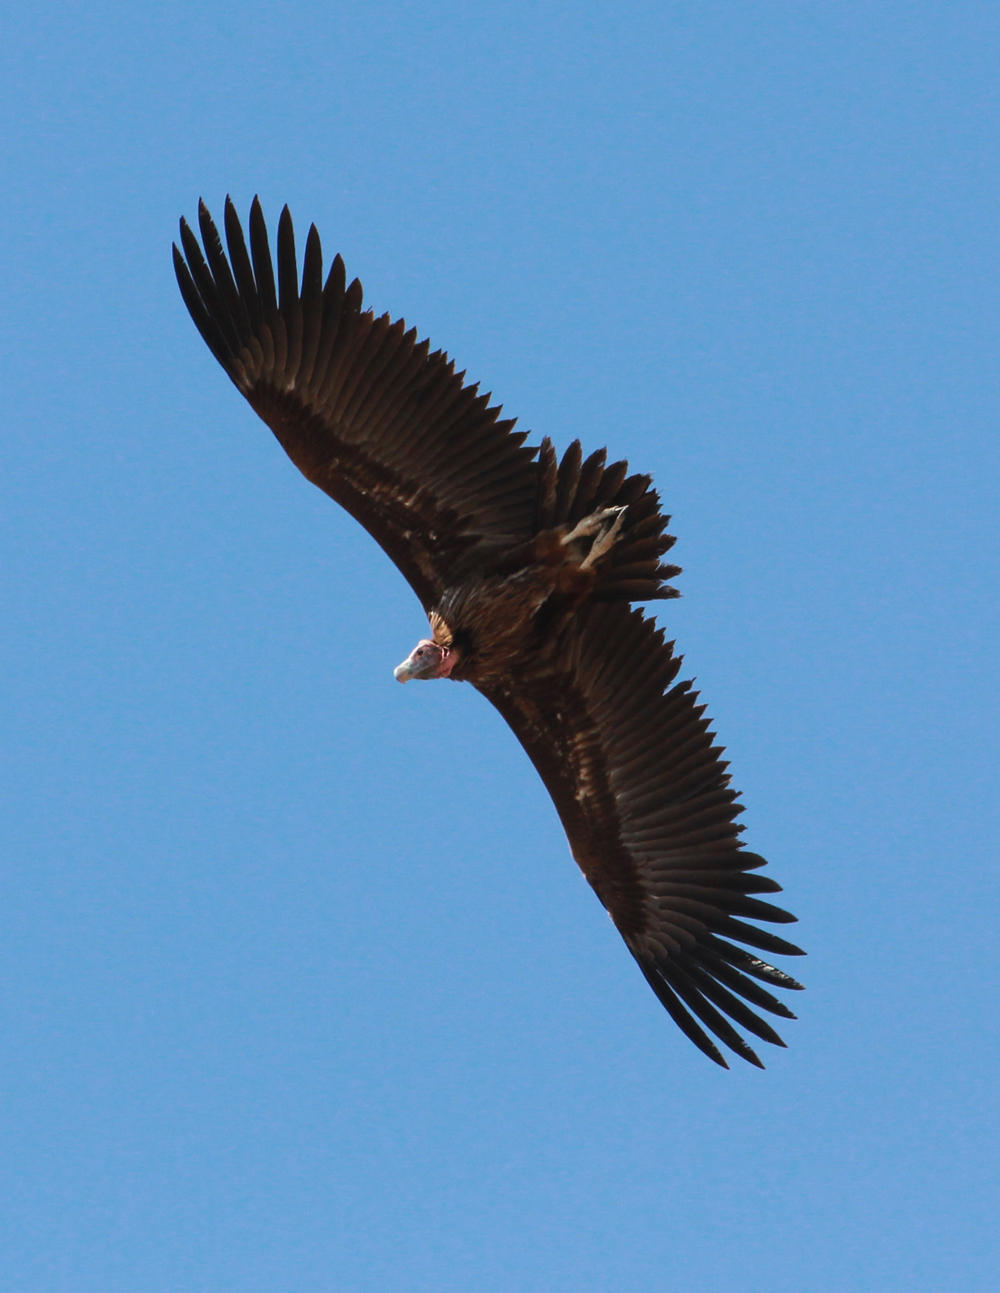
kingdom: Animalia
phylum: Chordata
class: Aves
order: Accipitriformes
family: Accipitridae
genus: Torgos
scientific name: Torgos tracheliotos
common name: Lappet-faced vulture
